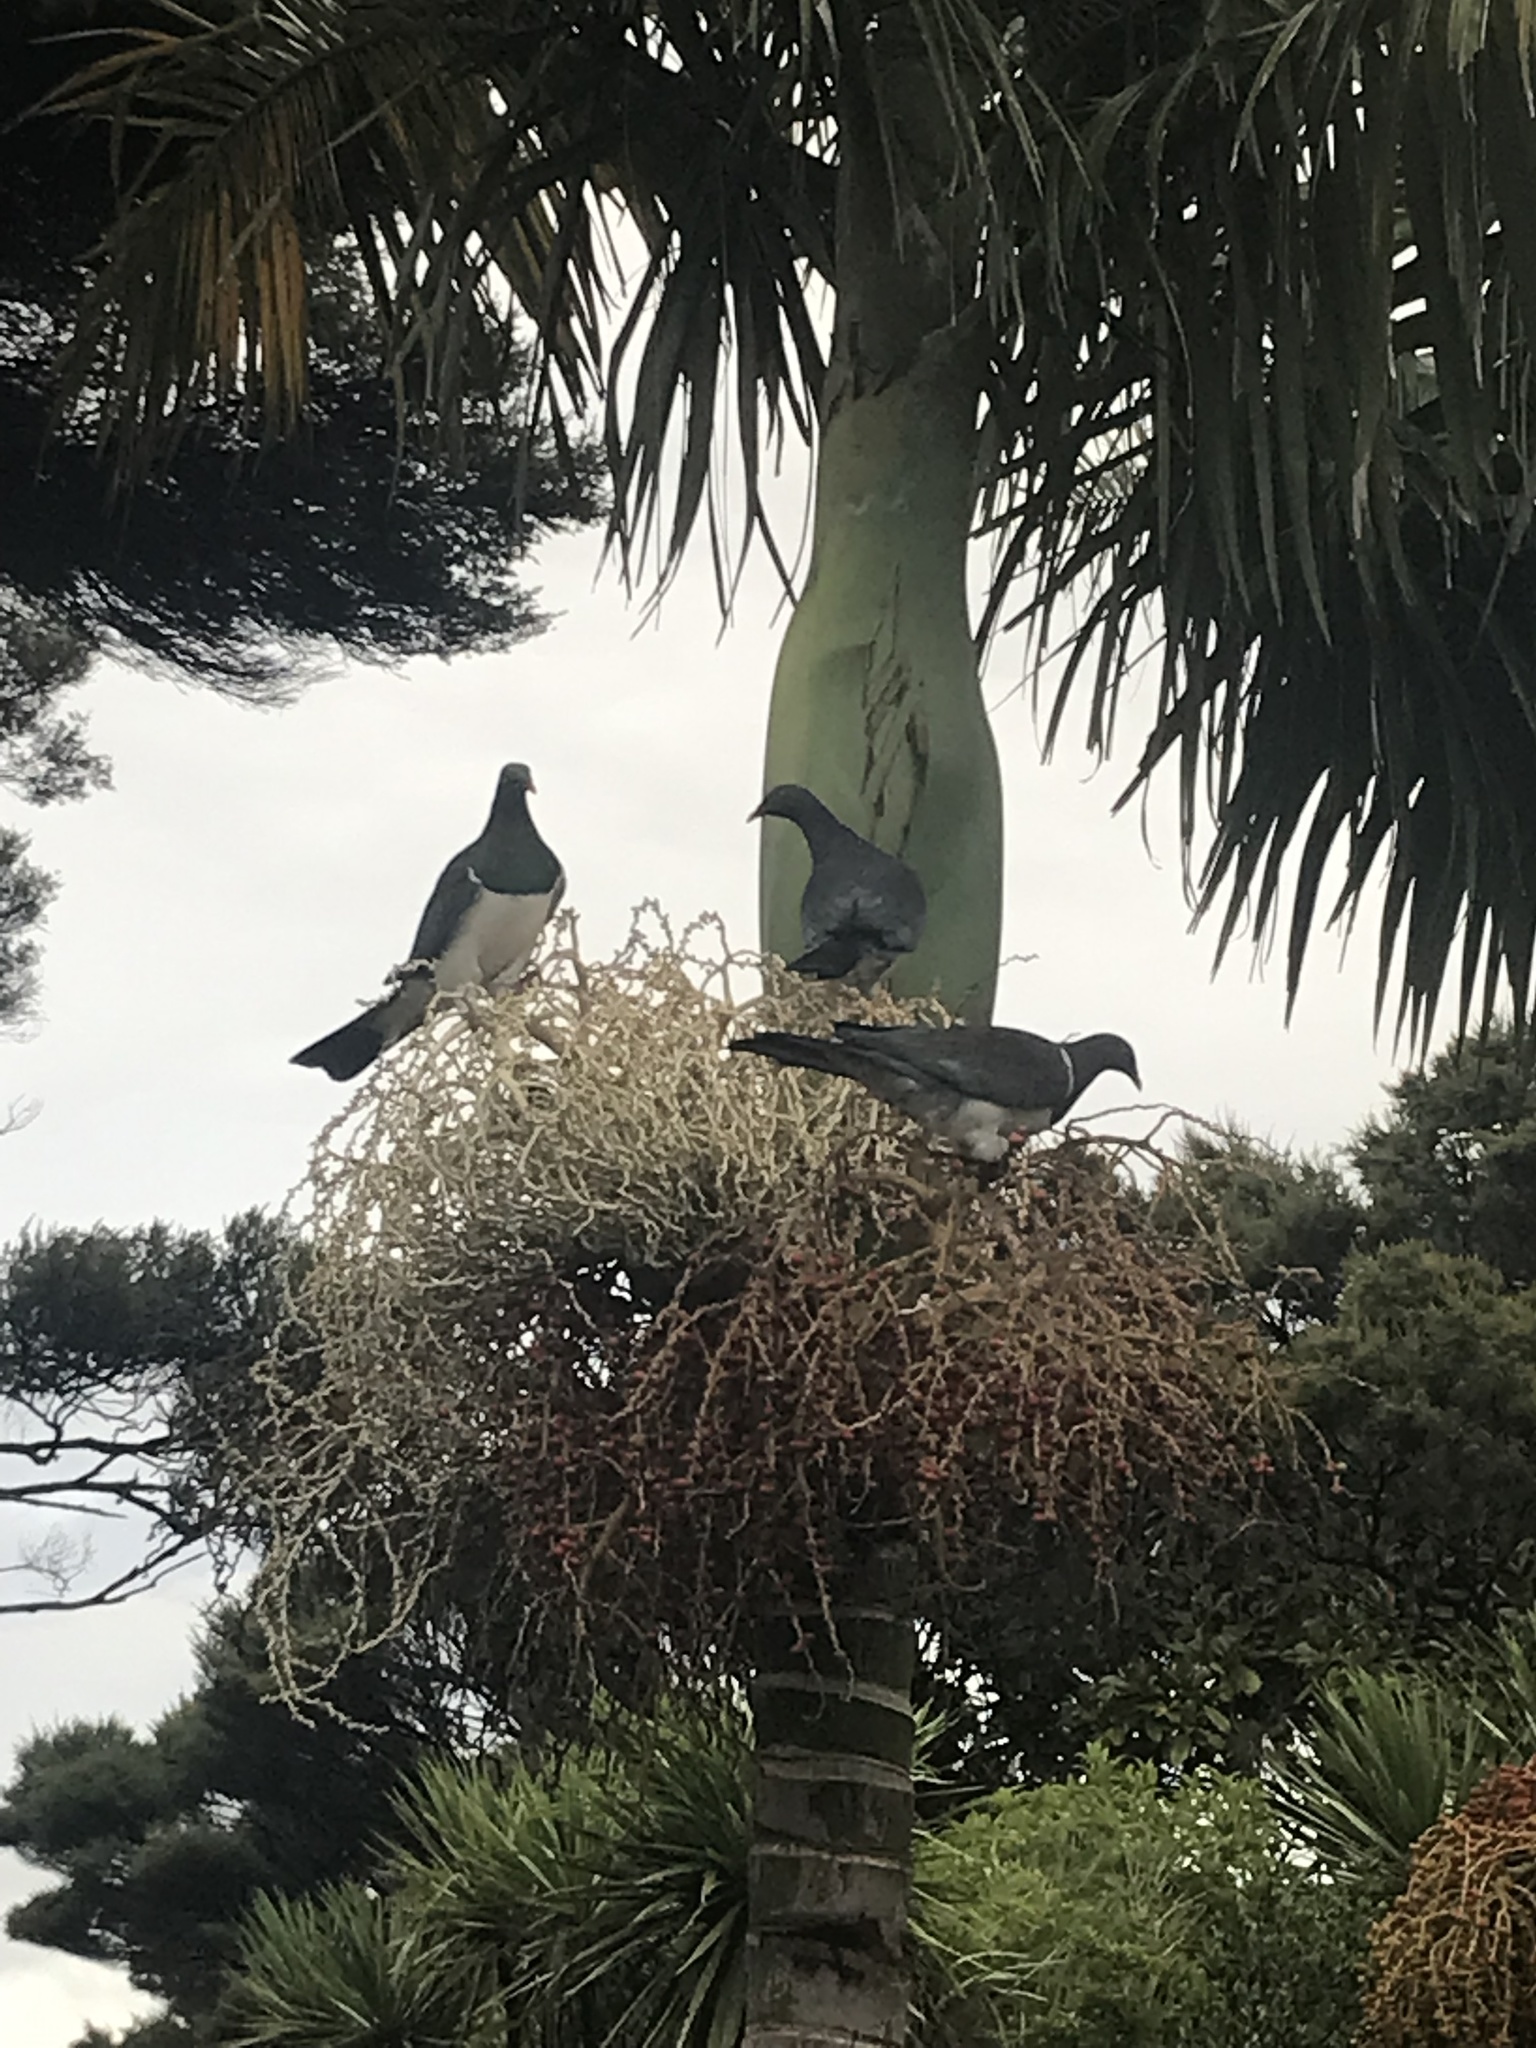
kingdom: Animalia
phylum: Chordata
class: Aves
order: Columbiformes
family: Columbidae
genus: Hemiphaga
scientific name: Hemiphaga novaeseelandiae
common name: New zealand pigeon
